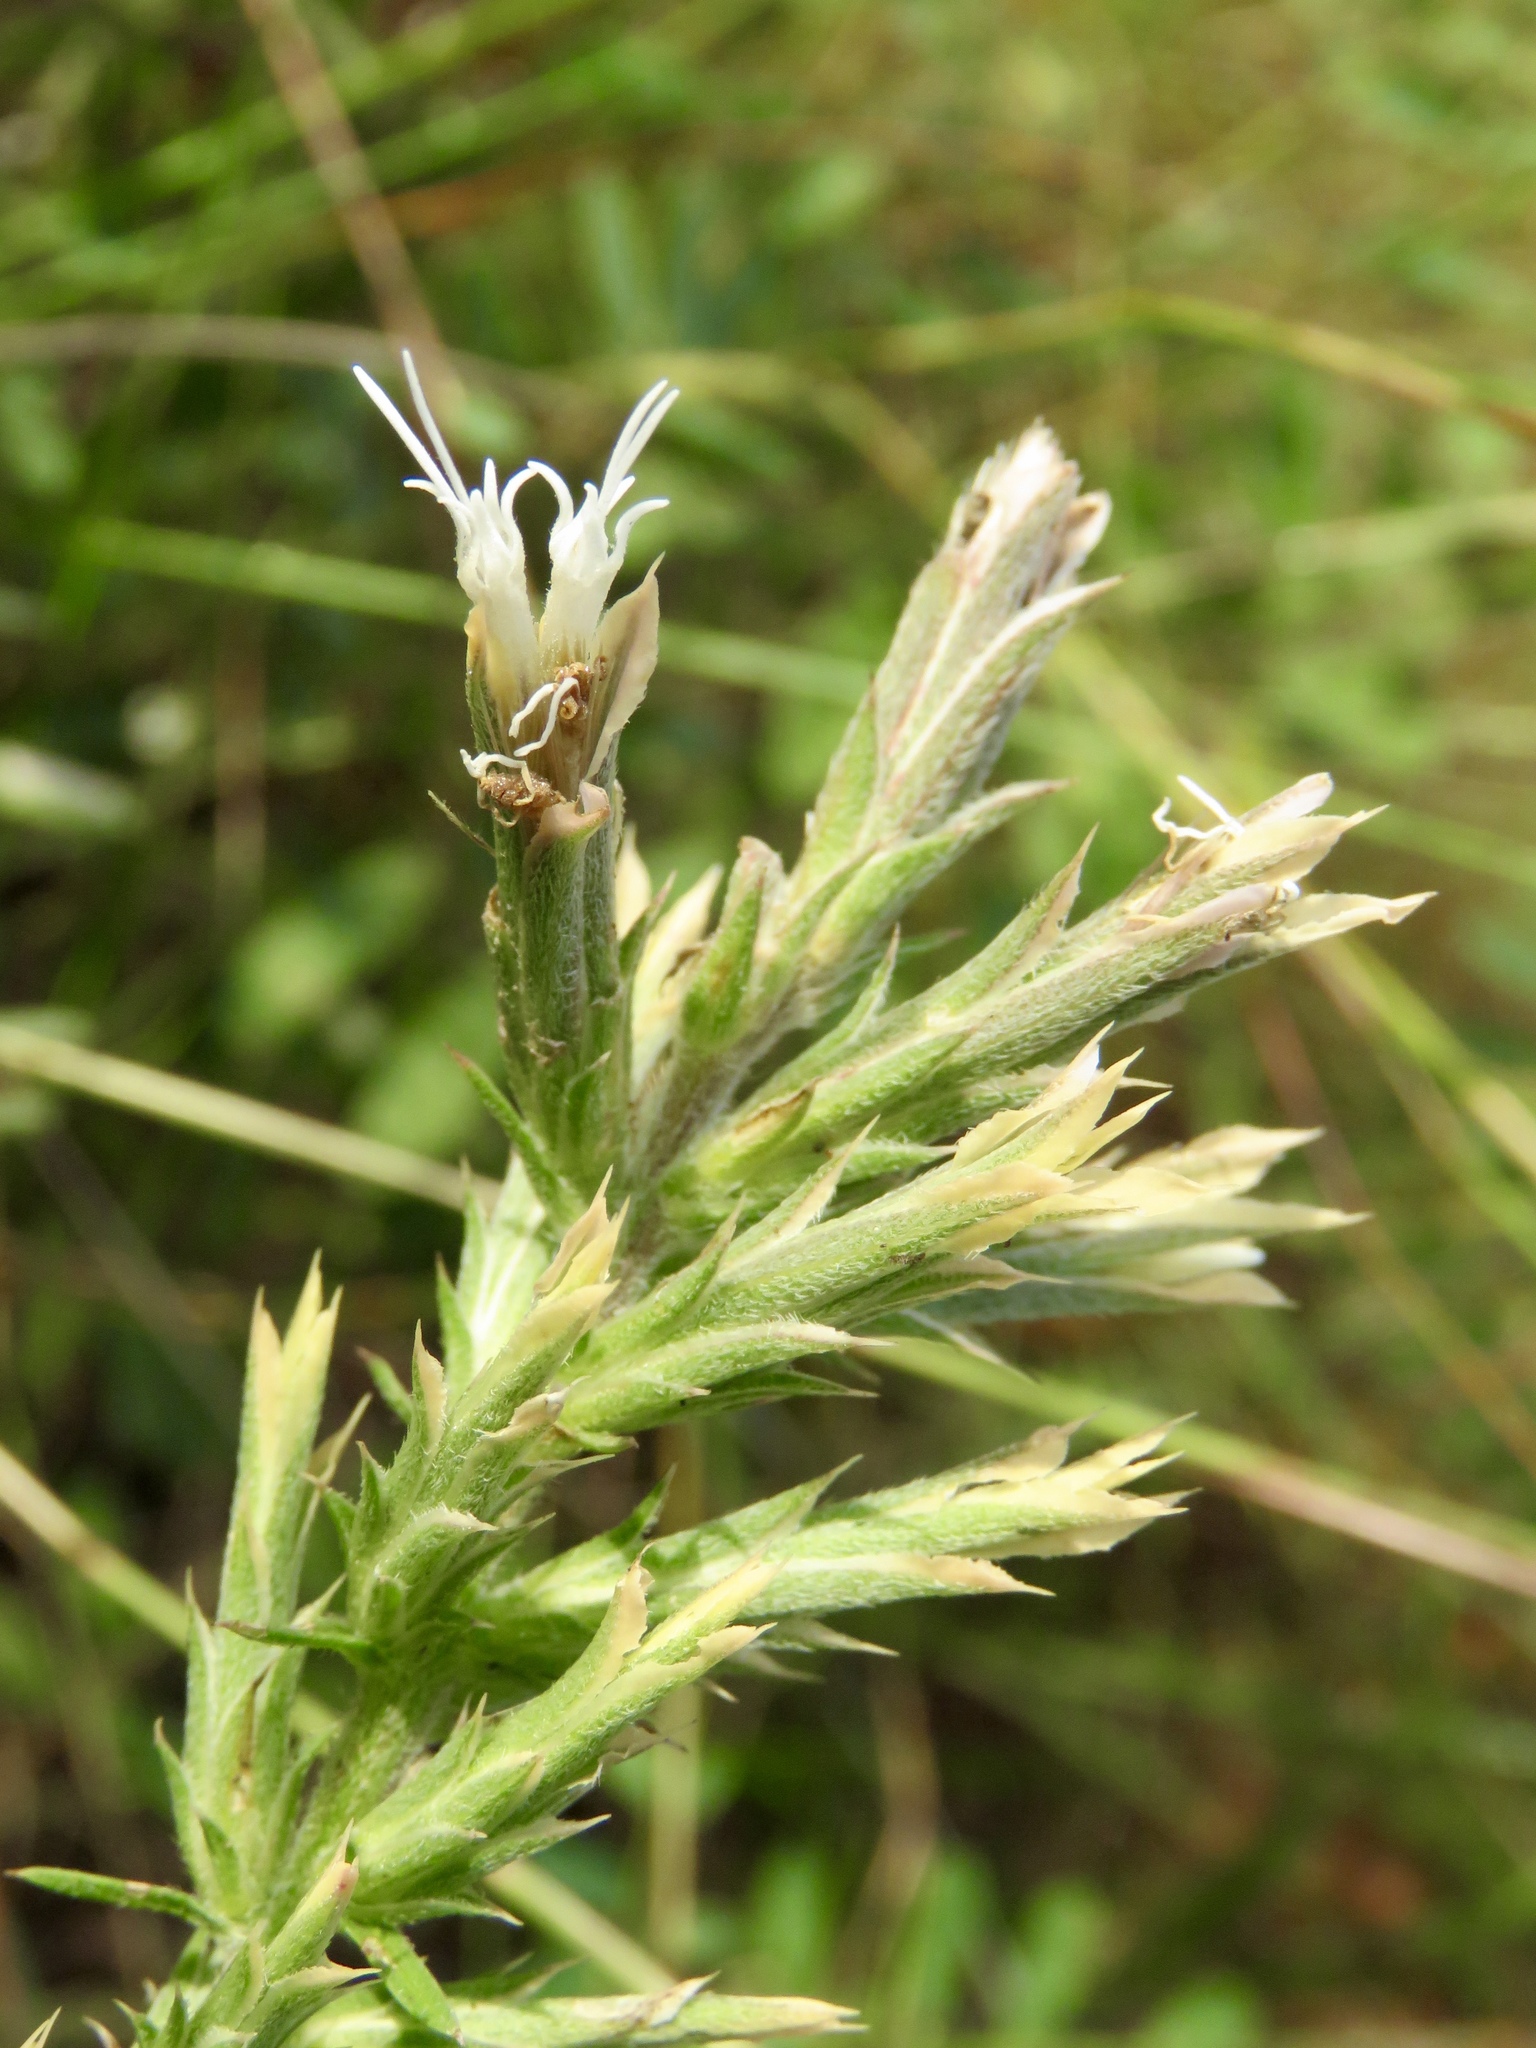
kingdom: Plantae
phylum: Tracheophyta
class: Magnoliopsida
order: Asterales
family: Asteraceae
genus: Liatris
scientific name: Liatris hesperelegans
